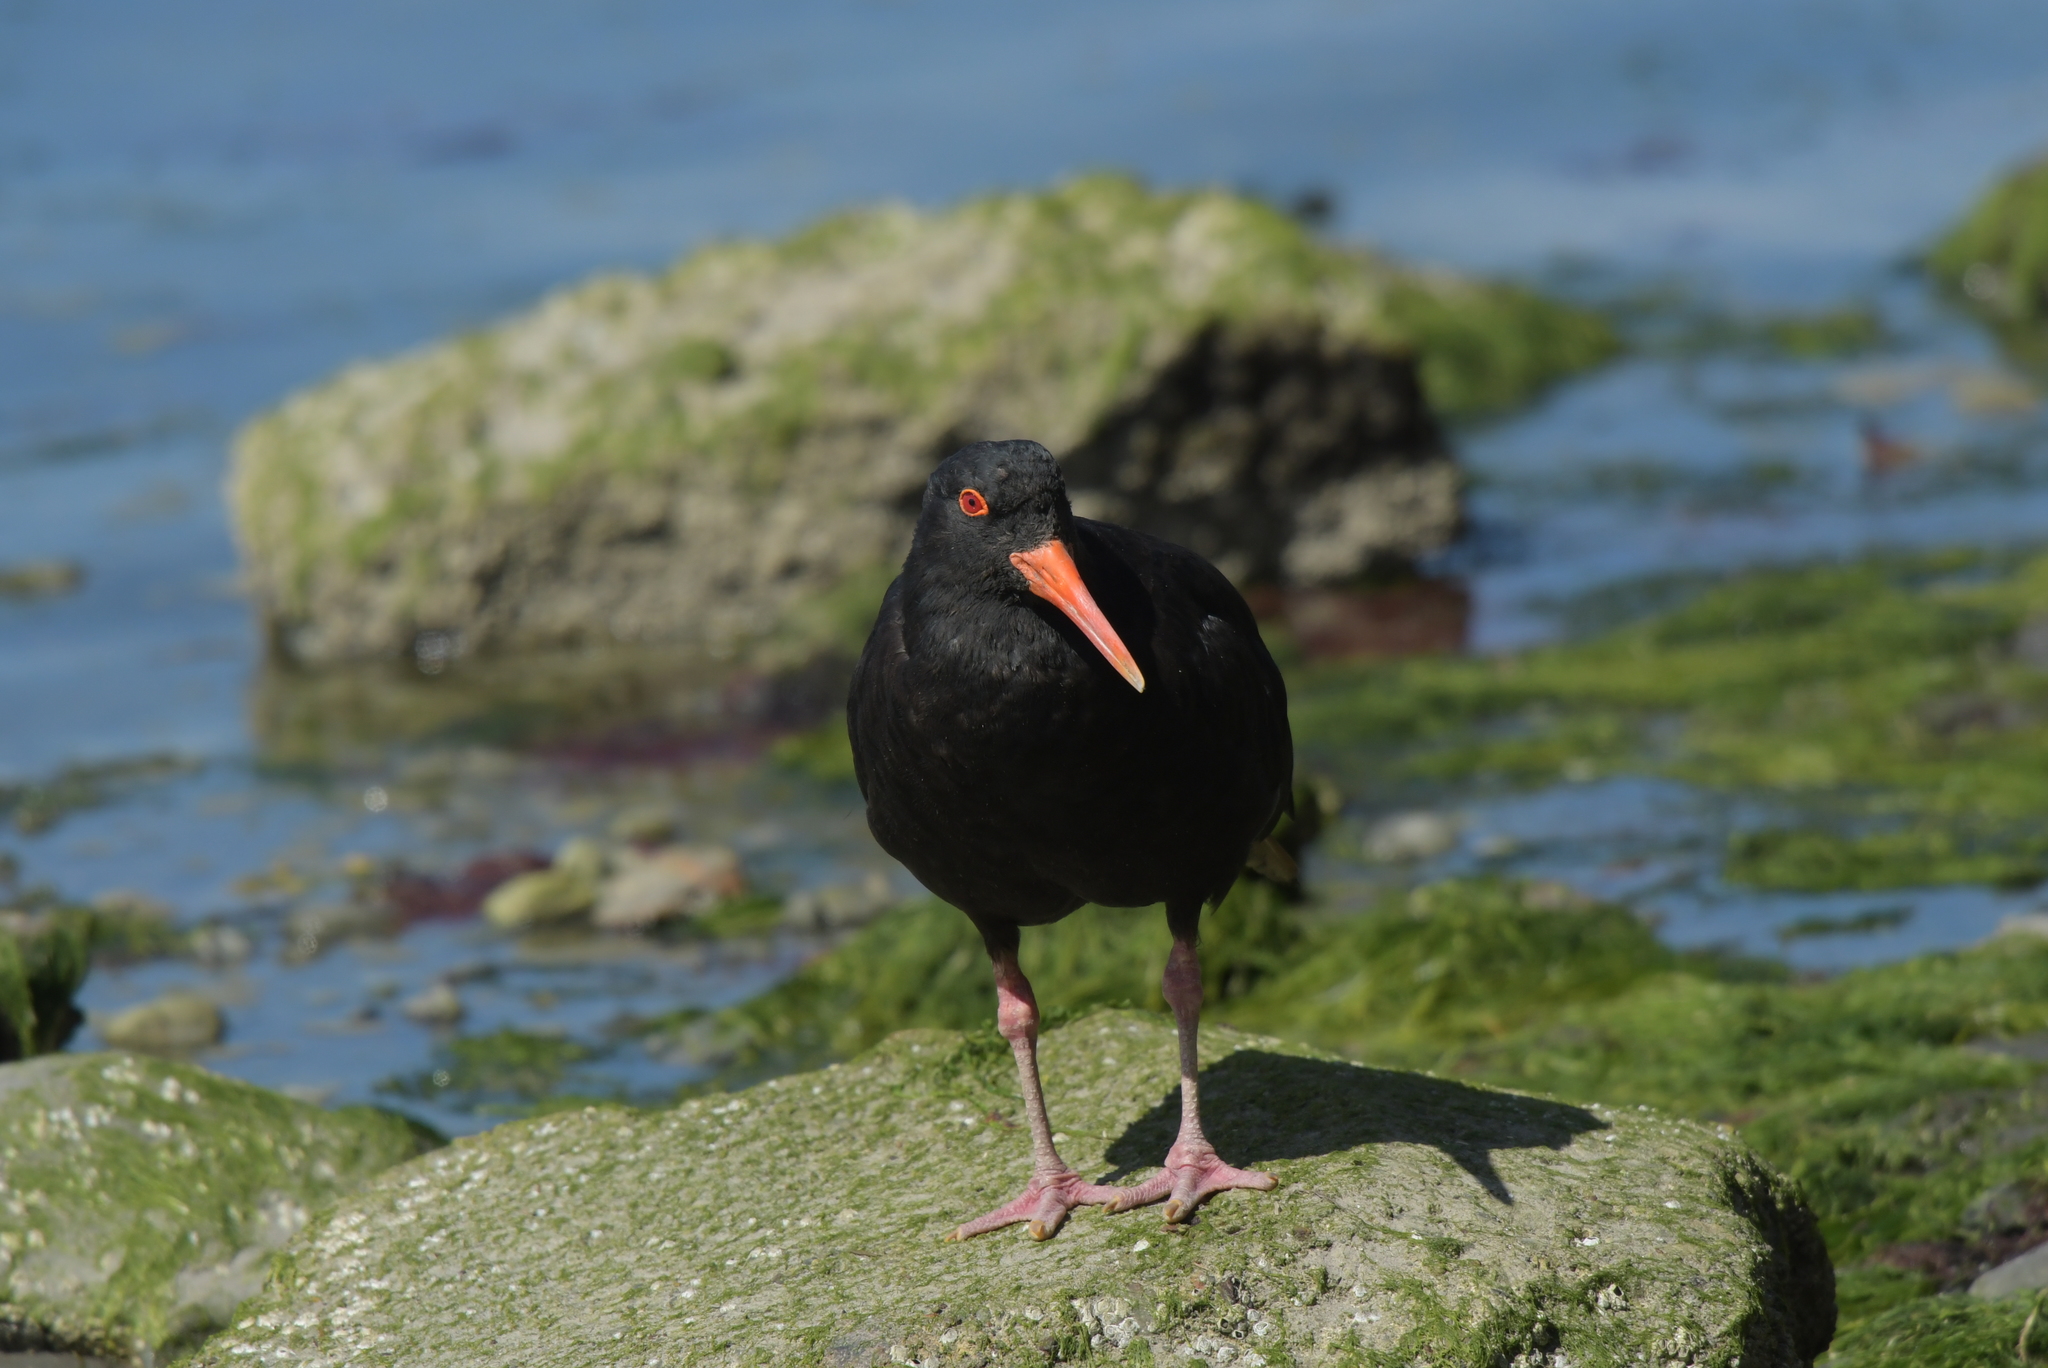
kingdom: Animalia
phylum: Chordata
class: Aves
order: Charadriiformes
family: Haematopodidae
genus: Haematopus
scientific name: Haematopus unicolor
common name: Variable oystercatcher
